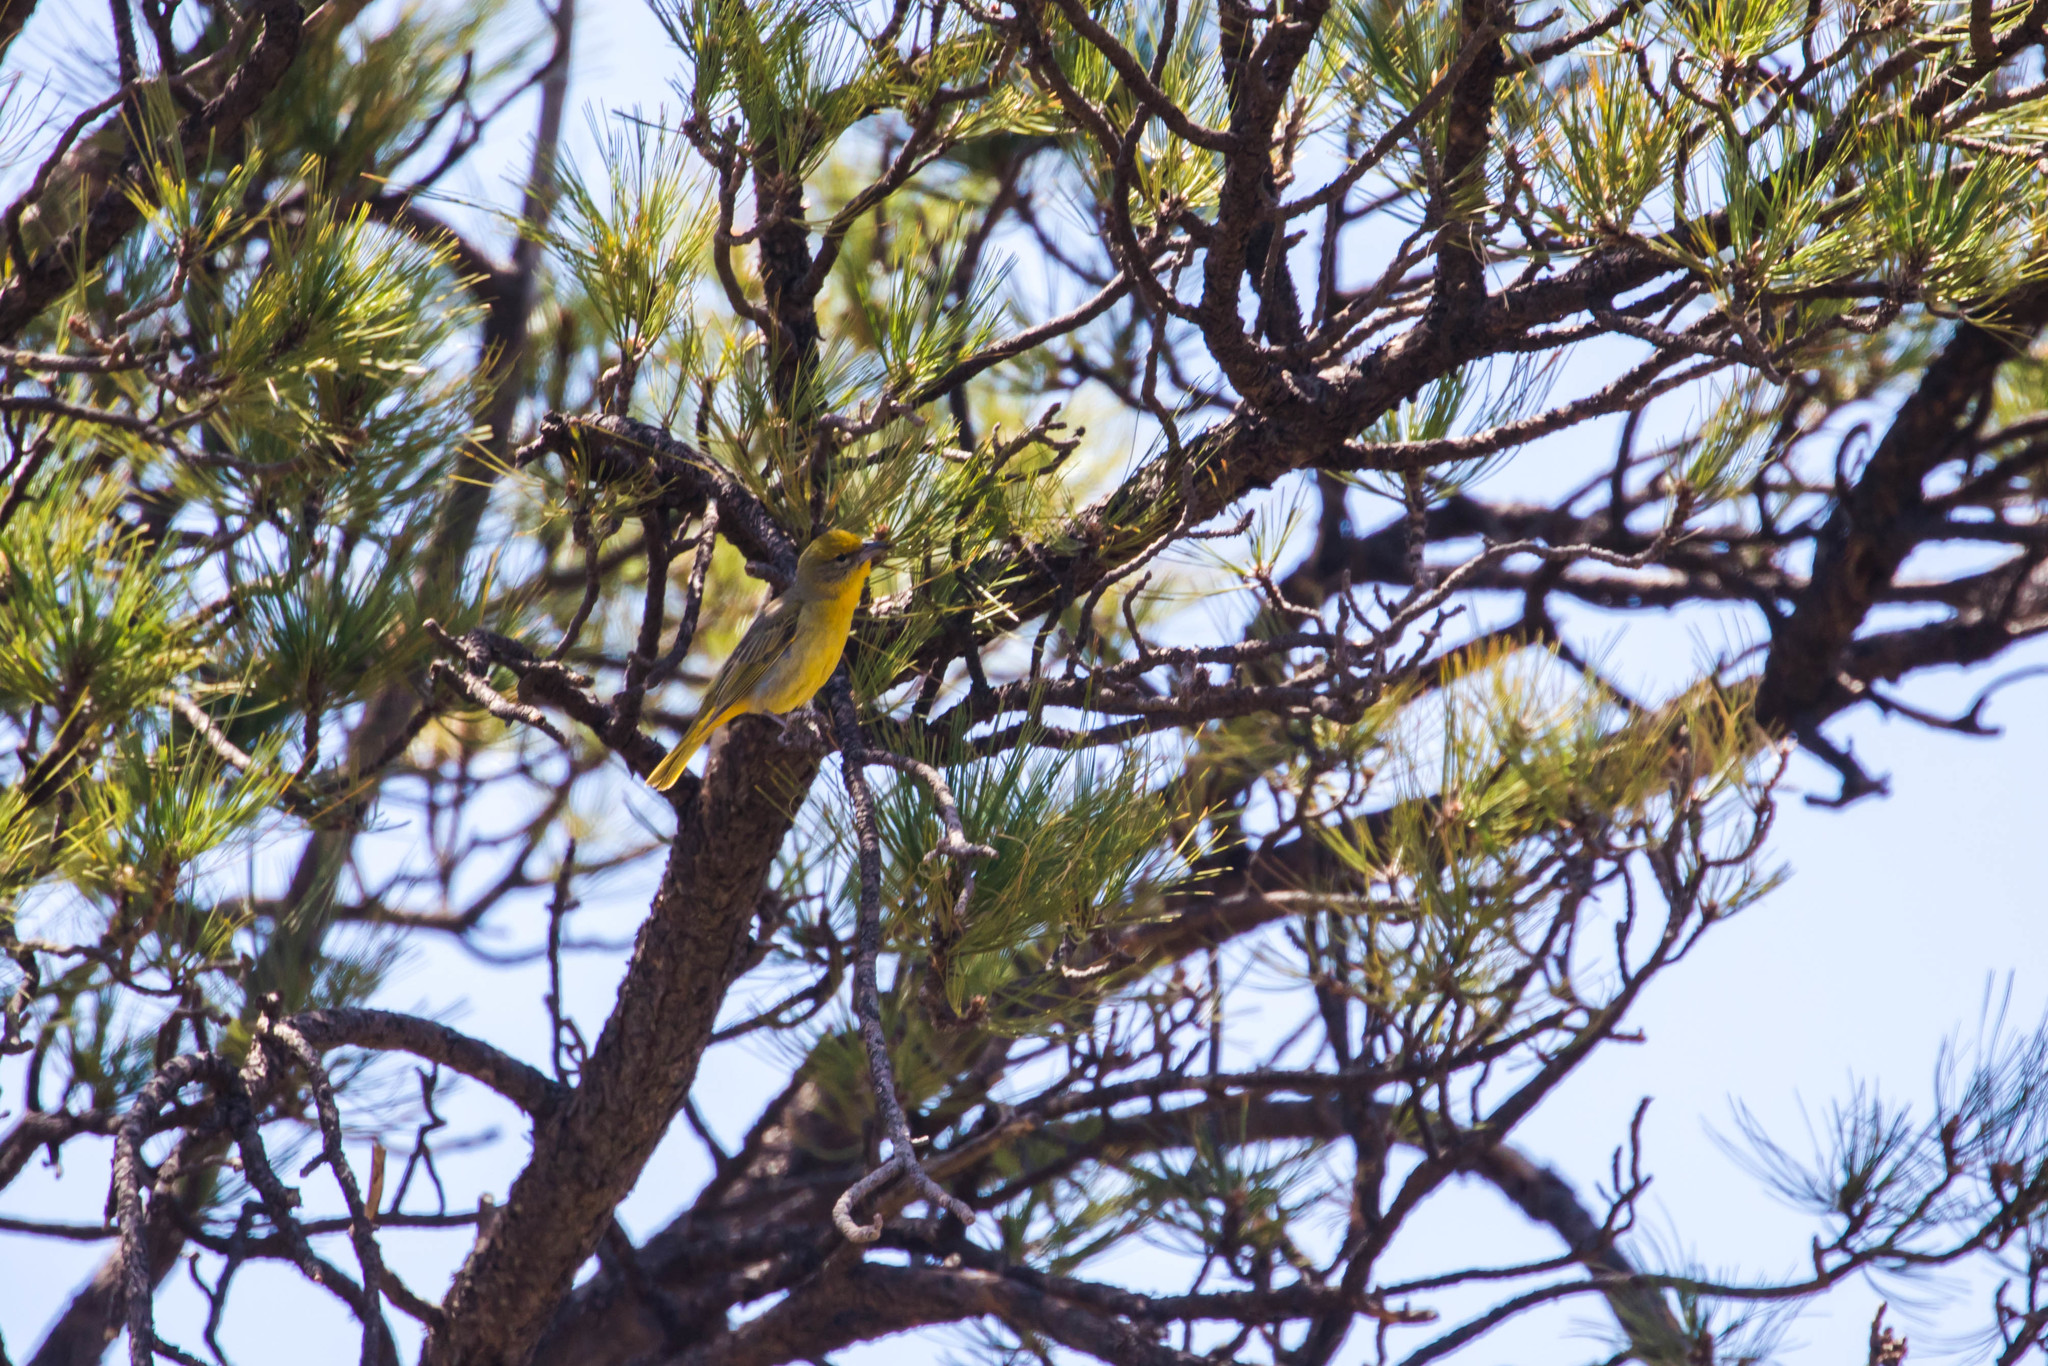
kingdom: Animalia
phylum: Chordata
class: Aves
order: Passeriformes
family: Cardinalidae
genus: Piranga
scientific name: Piranga flava
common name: Red tanager
